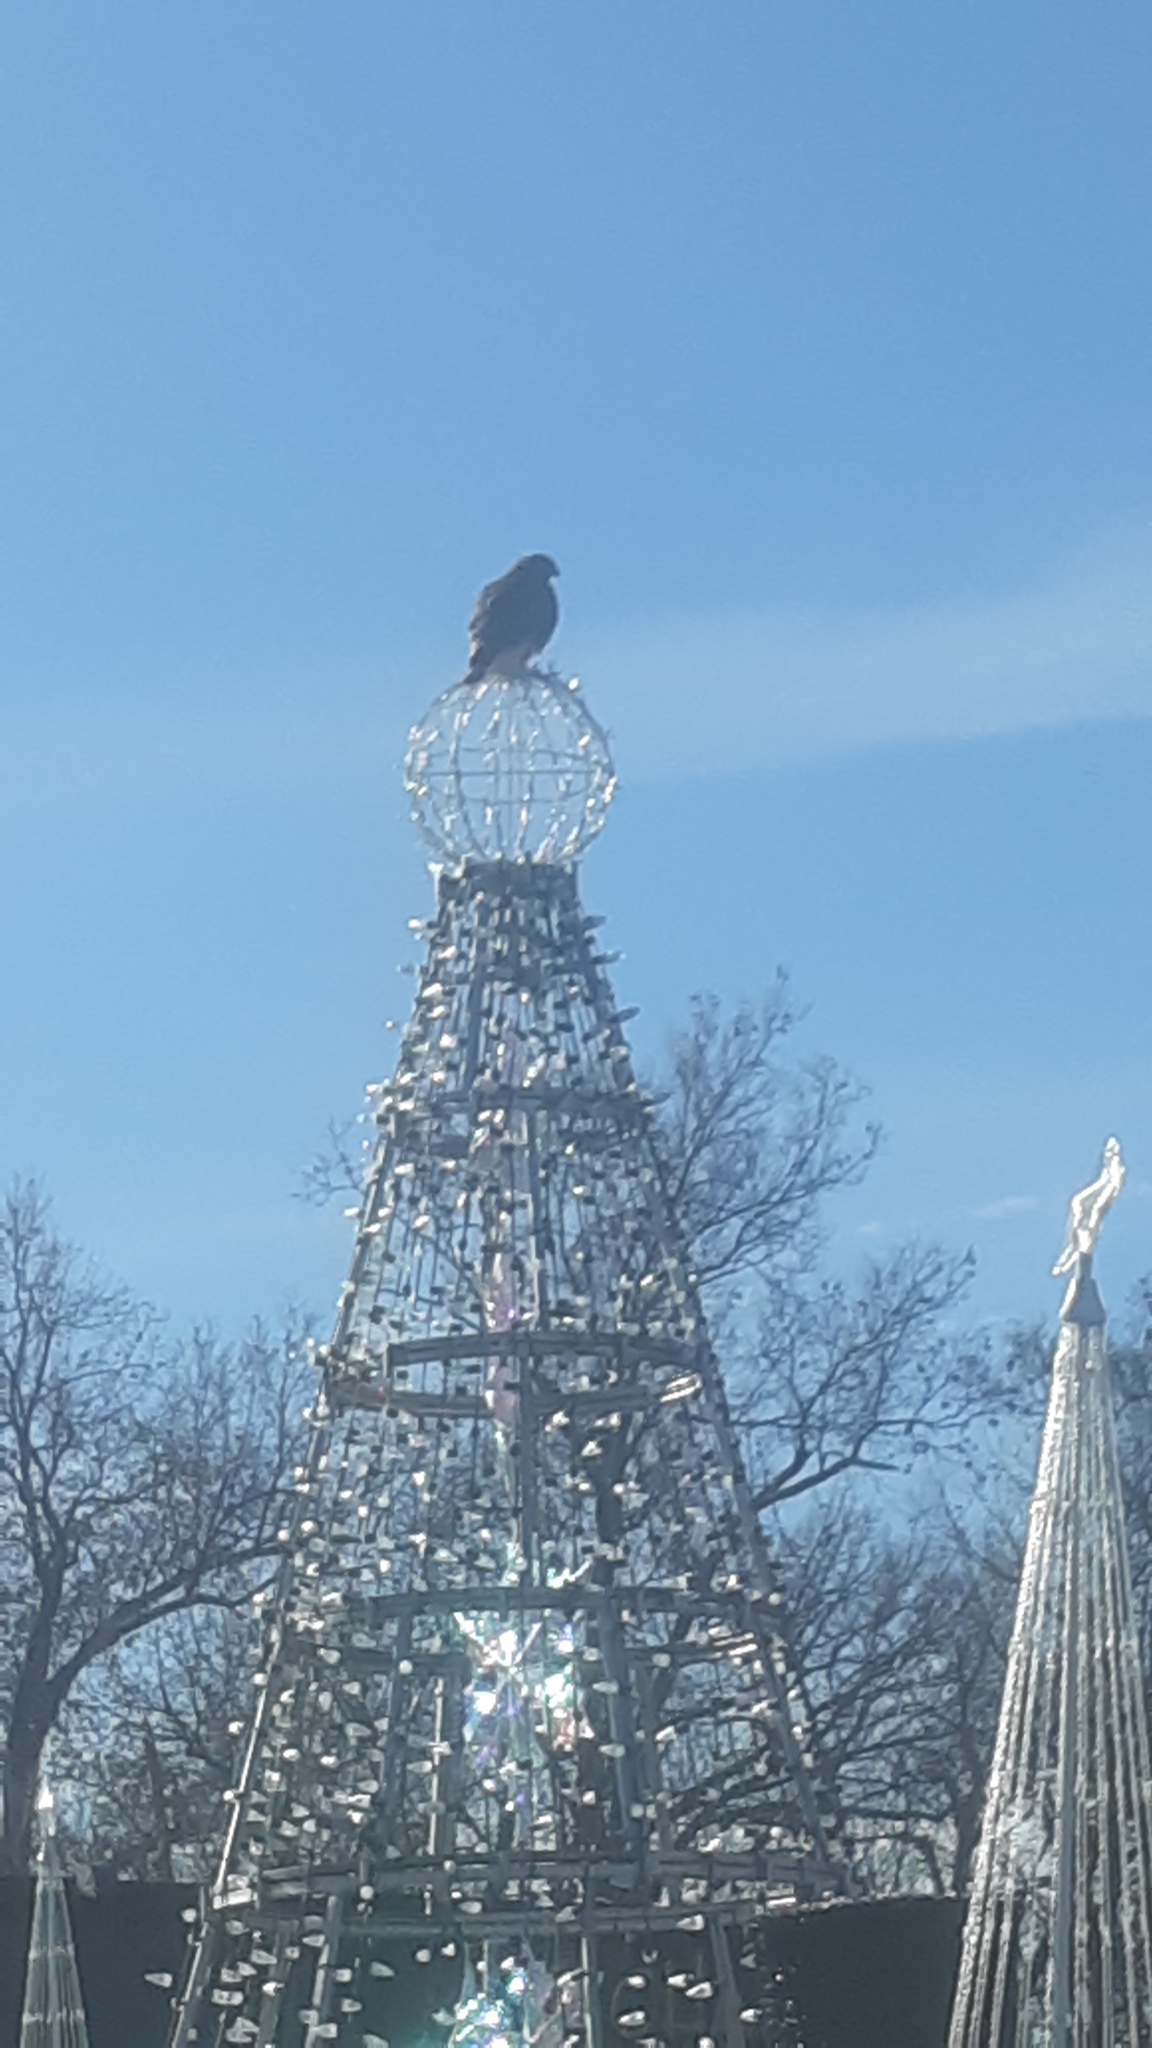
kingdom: Animalia
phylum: Chordata
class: Aves
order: Accipitriformes
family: Accipitridae
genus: Buteo
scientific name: Buteo lineatus
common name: Red-shouldered hawk
